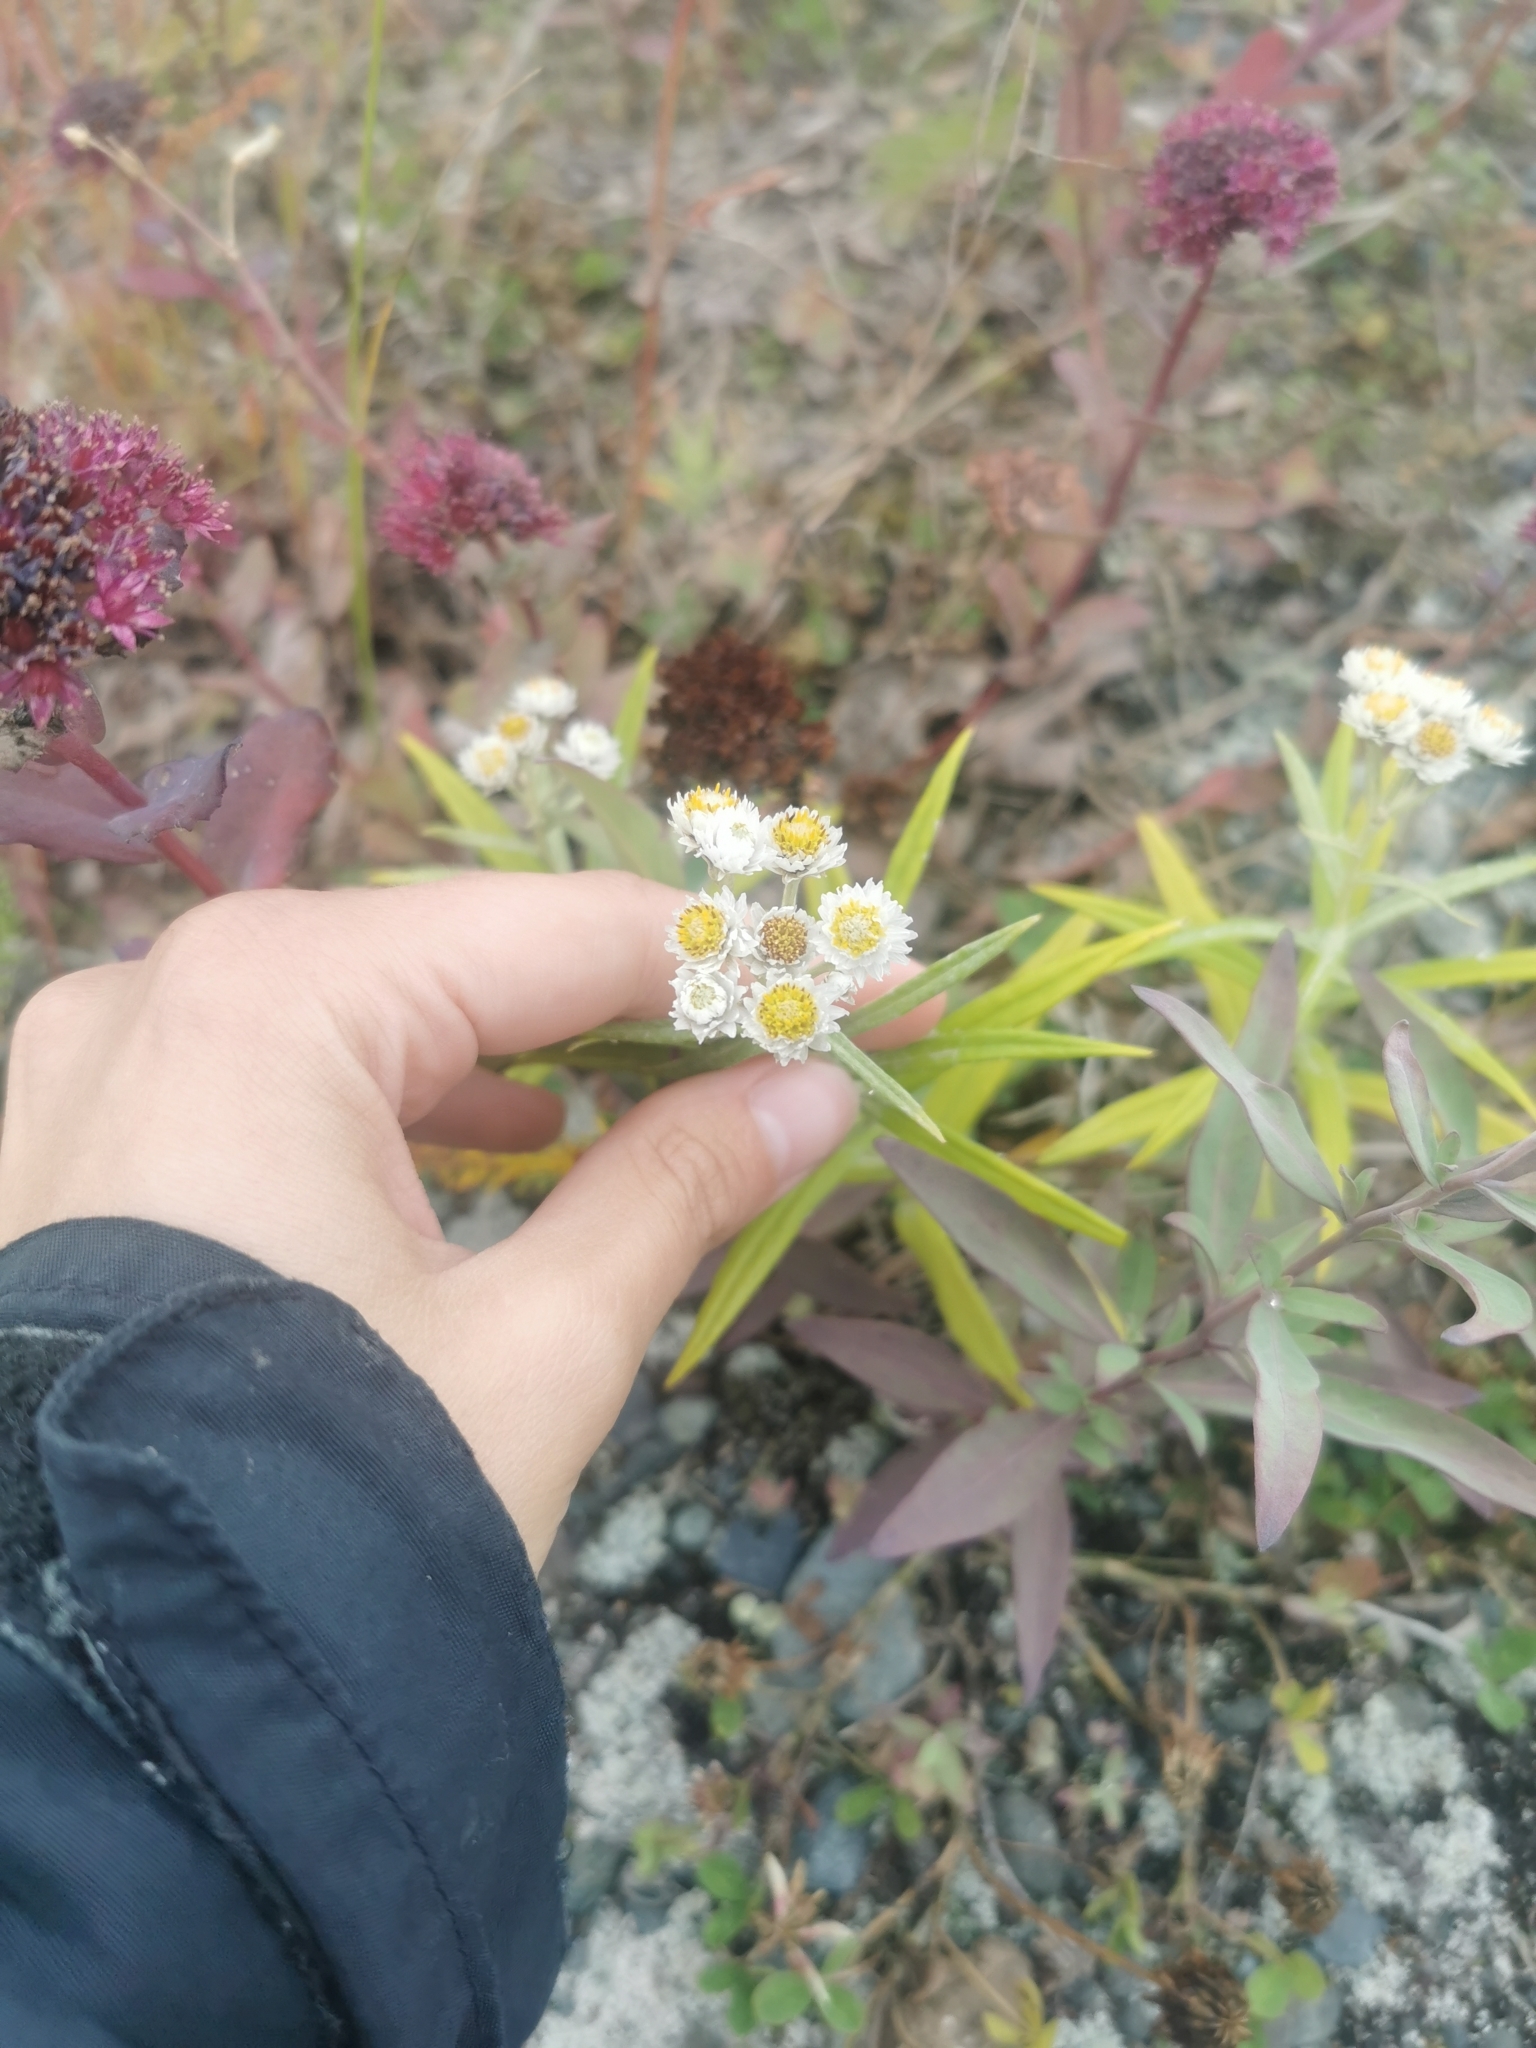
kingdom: Plantae
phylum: Tracheophyta
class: Magnoliopsida
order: Asterales
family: Asteraceae
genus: Anaphalis
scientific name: Anaphalis margaritacea
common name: Pearly everlasting
